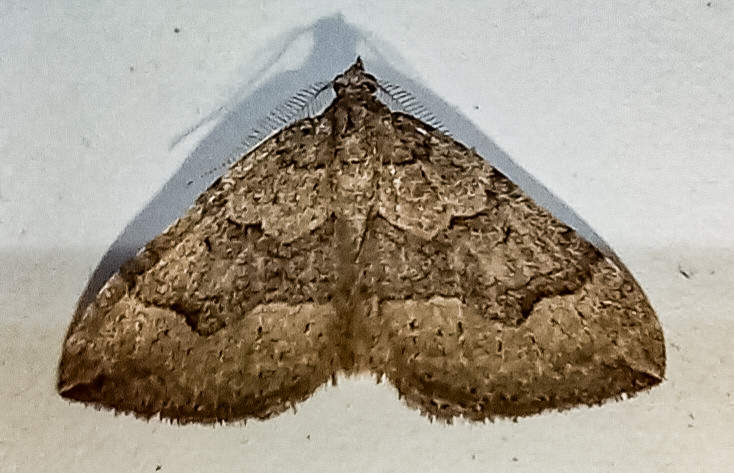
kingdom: Animalia
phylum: Arthropoda
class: Insecta
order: Lepidoptera
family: Geometridae
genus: Epyaxa
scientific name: Epyaxa rosearia
